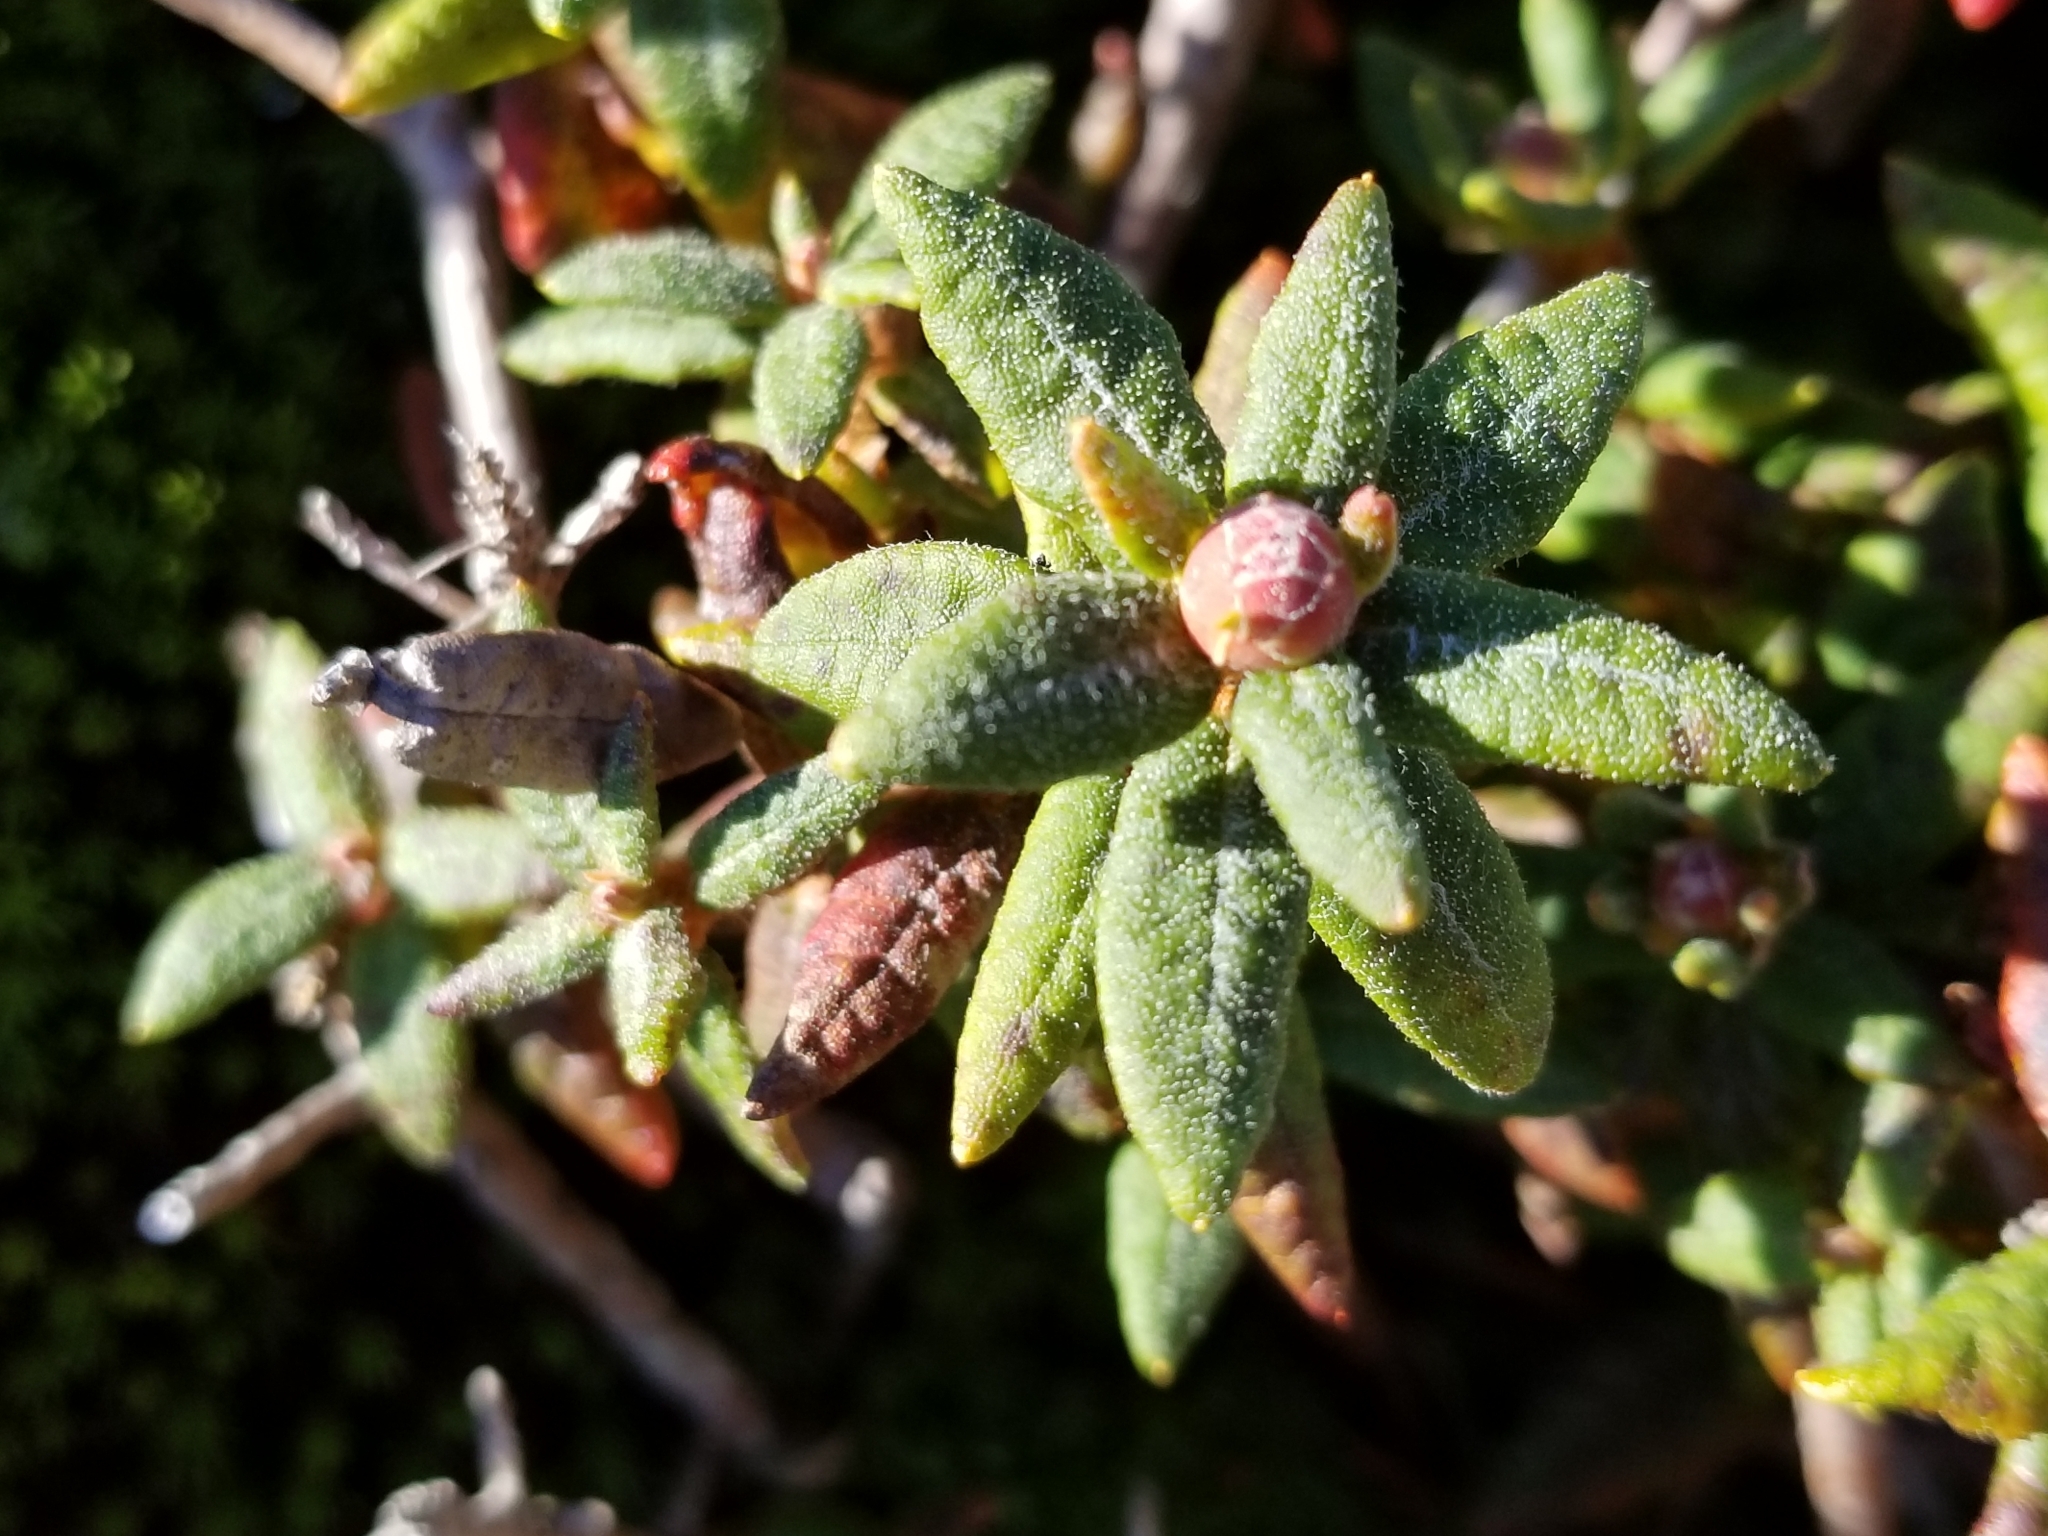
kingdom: Plantae
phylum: Tracheophyta
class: Magnoliopsida
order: Ericales
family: Ericaceae
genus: Rhododendron
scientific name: Rhododendron groenlandicum
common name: Bog labrador tea
